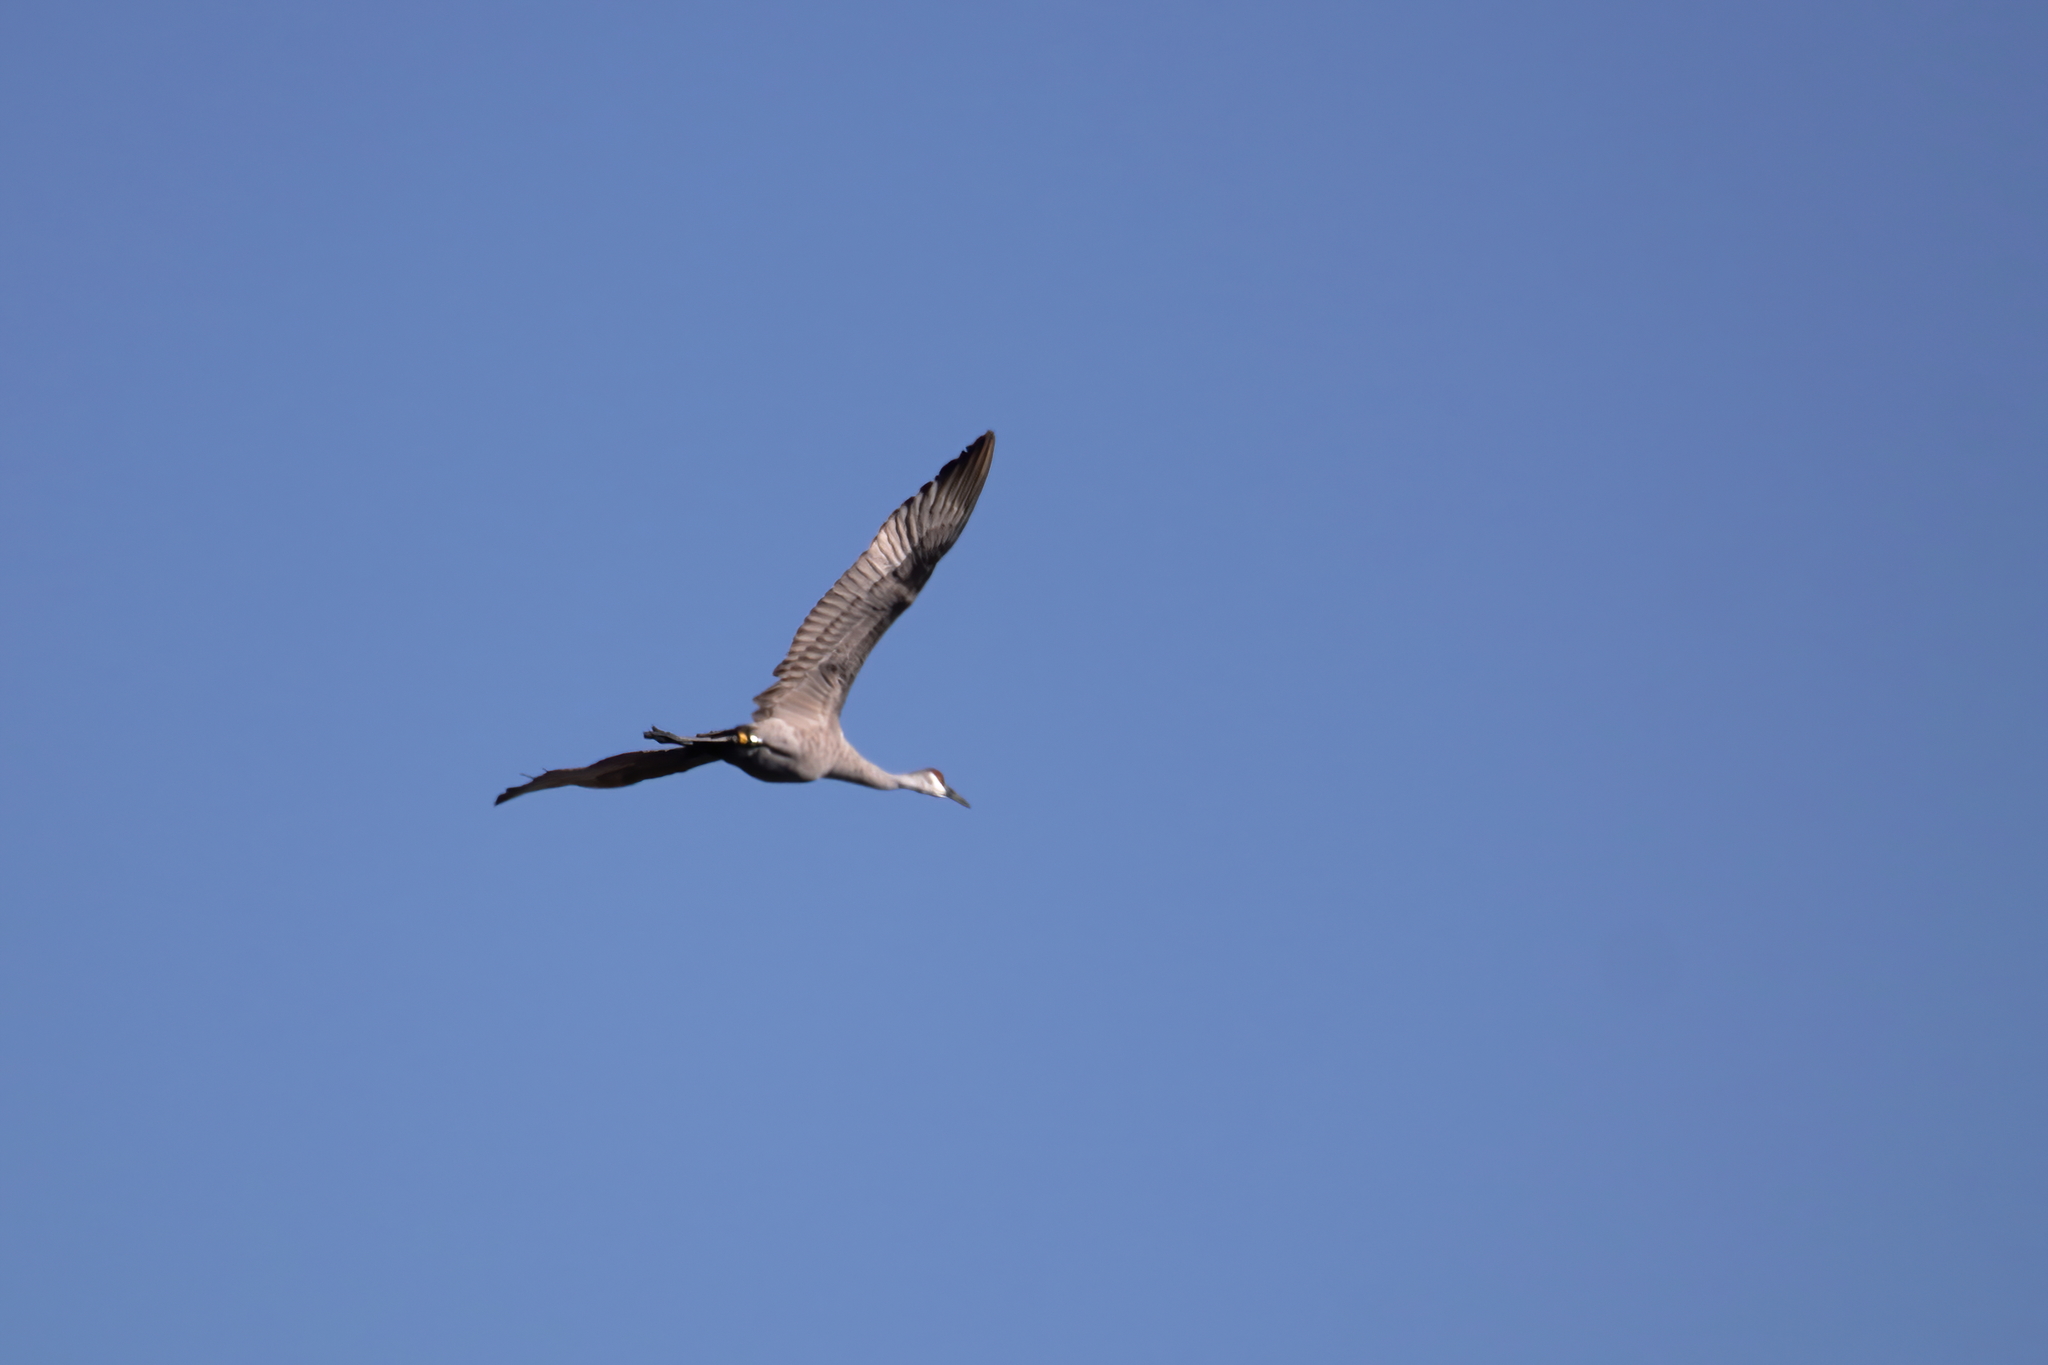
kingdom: Animalia
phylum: Chordata
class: Aves
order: Gruiformes
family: Gruidae
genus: Grus
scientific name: Grus canadensis
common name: Sandhill crane
